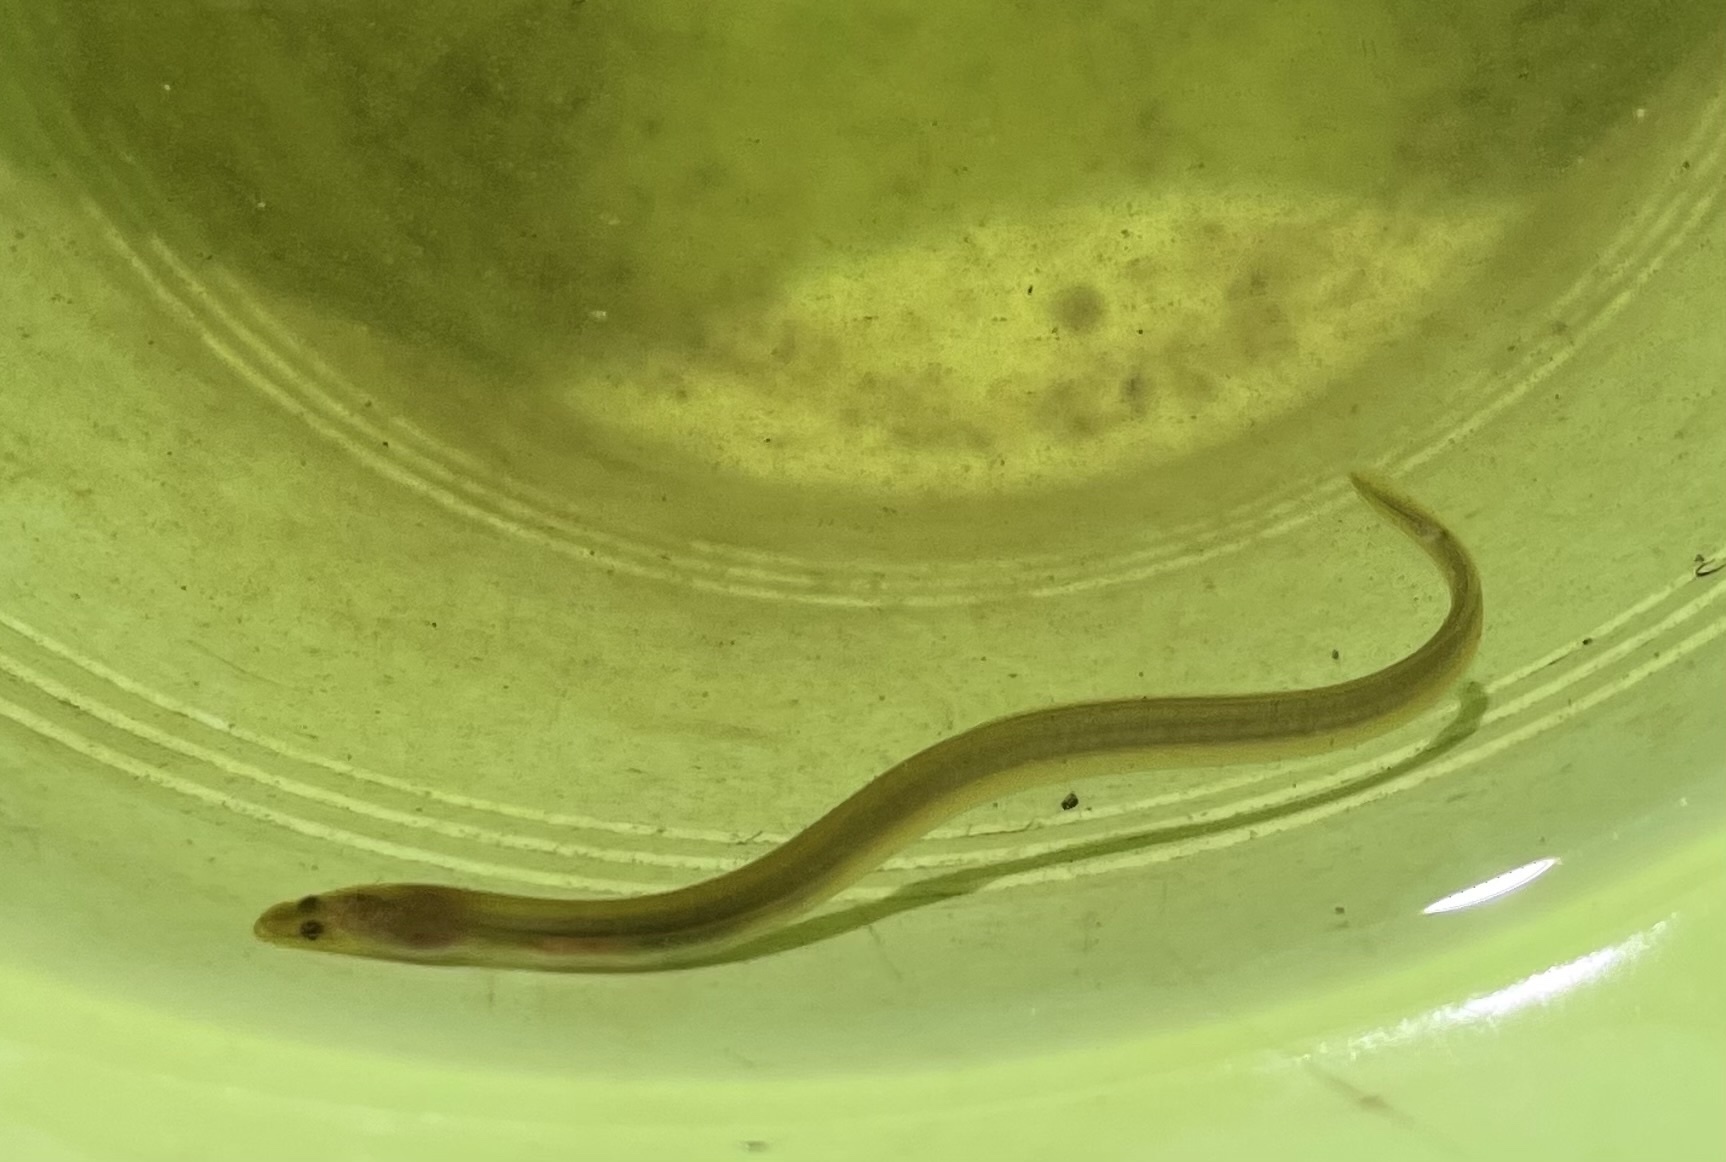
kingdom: Animalia
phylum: Chordata
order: Anguilliformes
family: Anguillidae
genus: Anguilla
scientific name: Anguilla rostrata
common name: American eel
